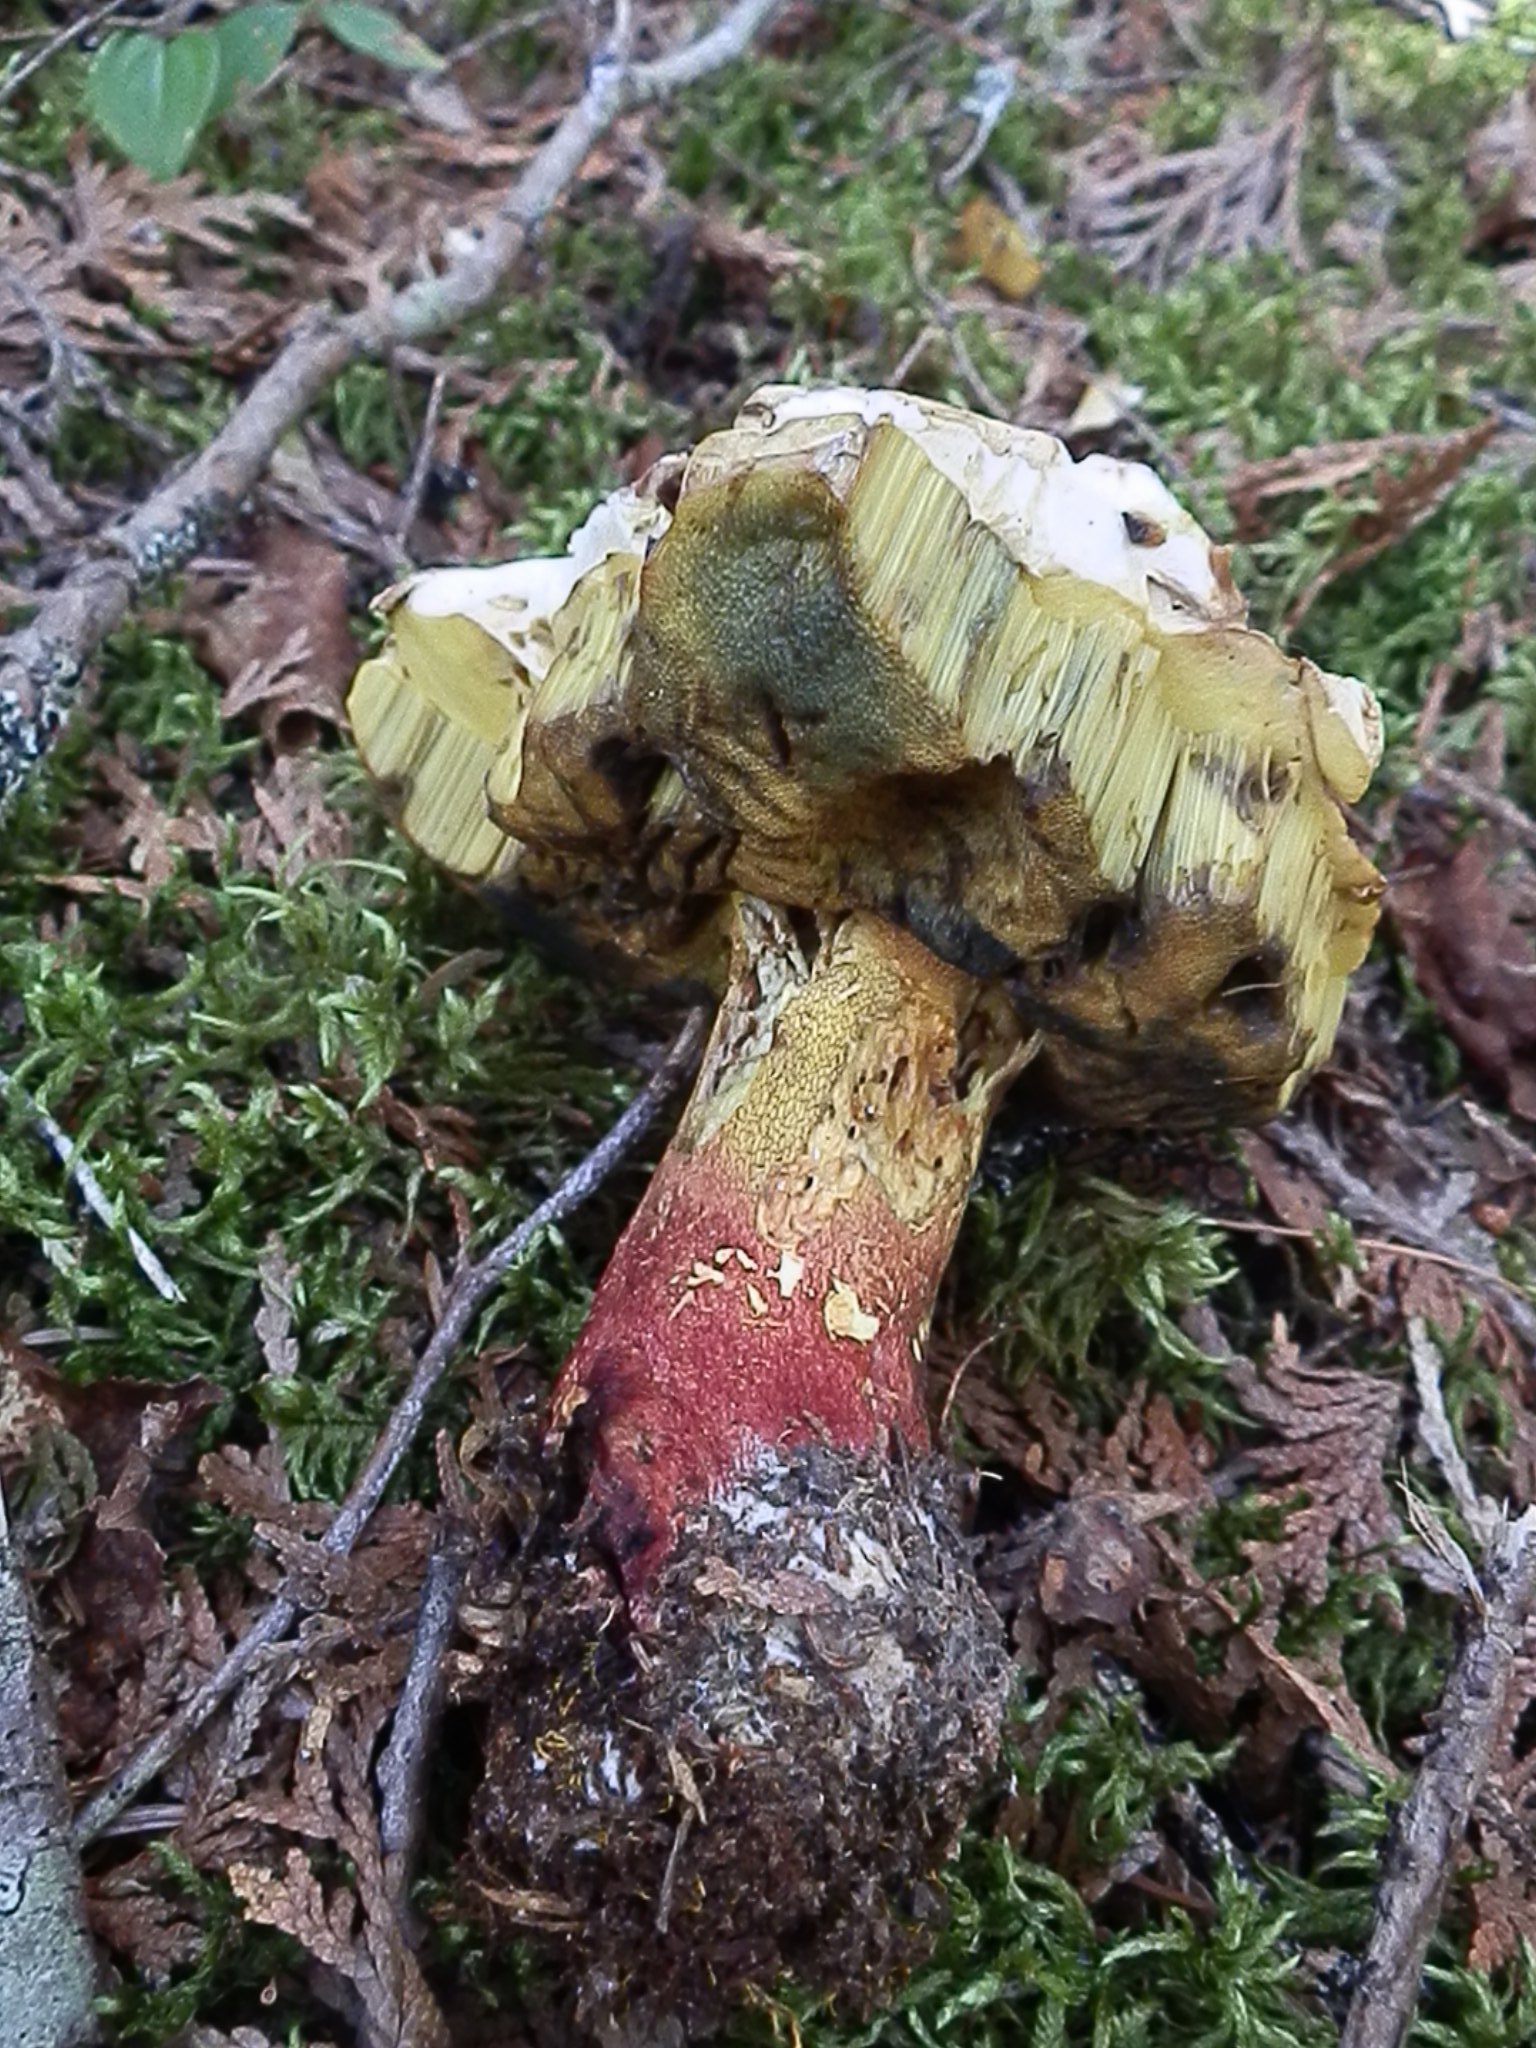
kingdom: Fungi
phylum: Basidiomycota
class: Agaricomycetes
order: Boletales
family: Boletaceae
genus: Butyriboletus
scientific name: Butyriboletus brunneus
